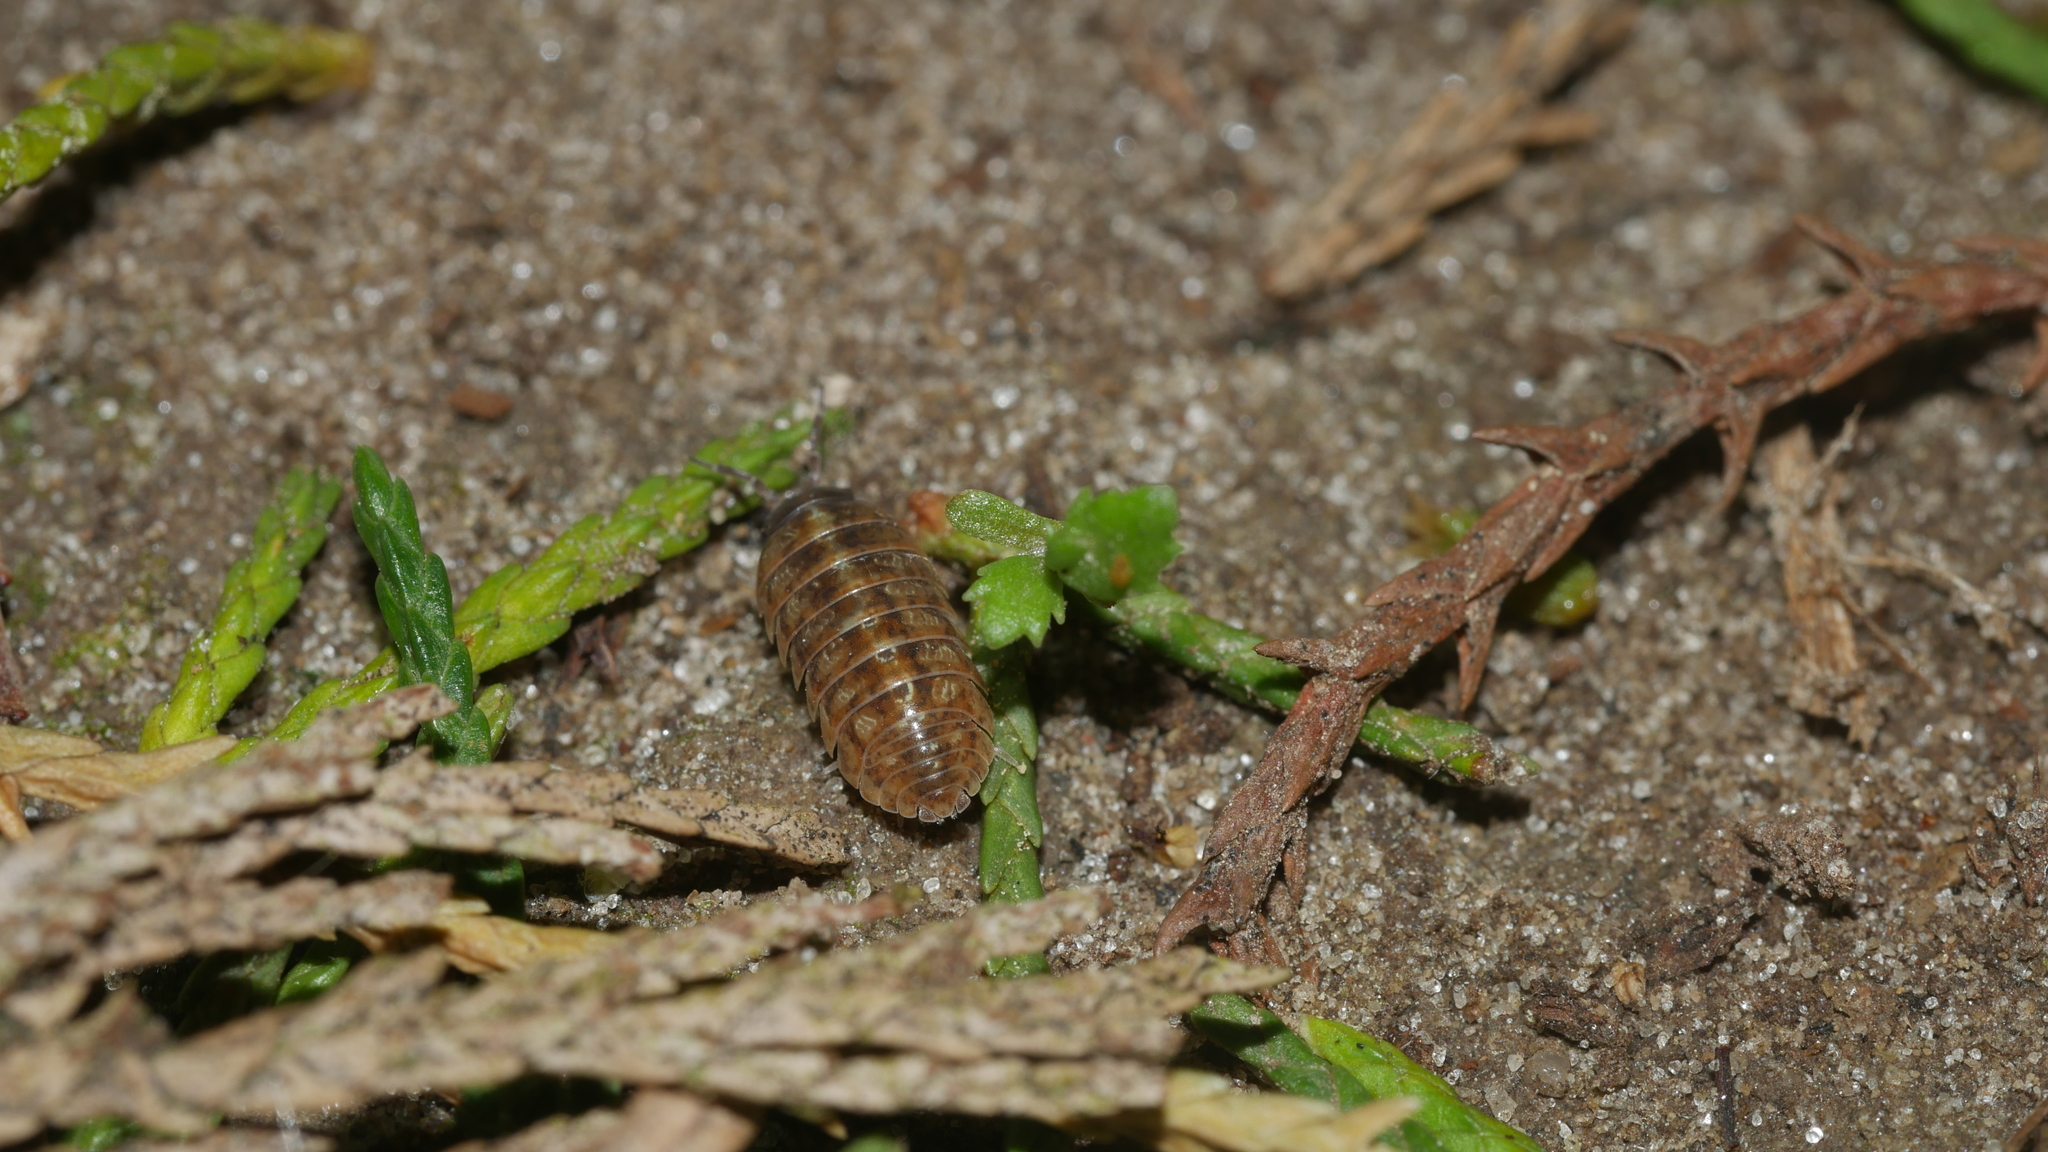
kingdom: Animalia
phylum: Arthropoda
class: Malacostraca
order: Isopoda
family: Armadillidiidae
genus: Armadillidium
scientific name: Armadillidium vulgare
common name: Common pill woodlouse
